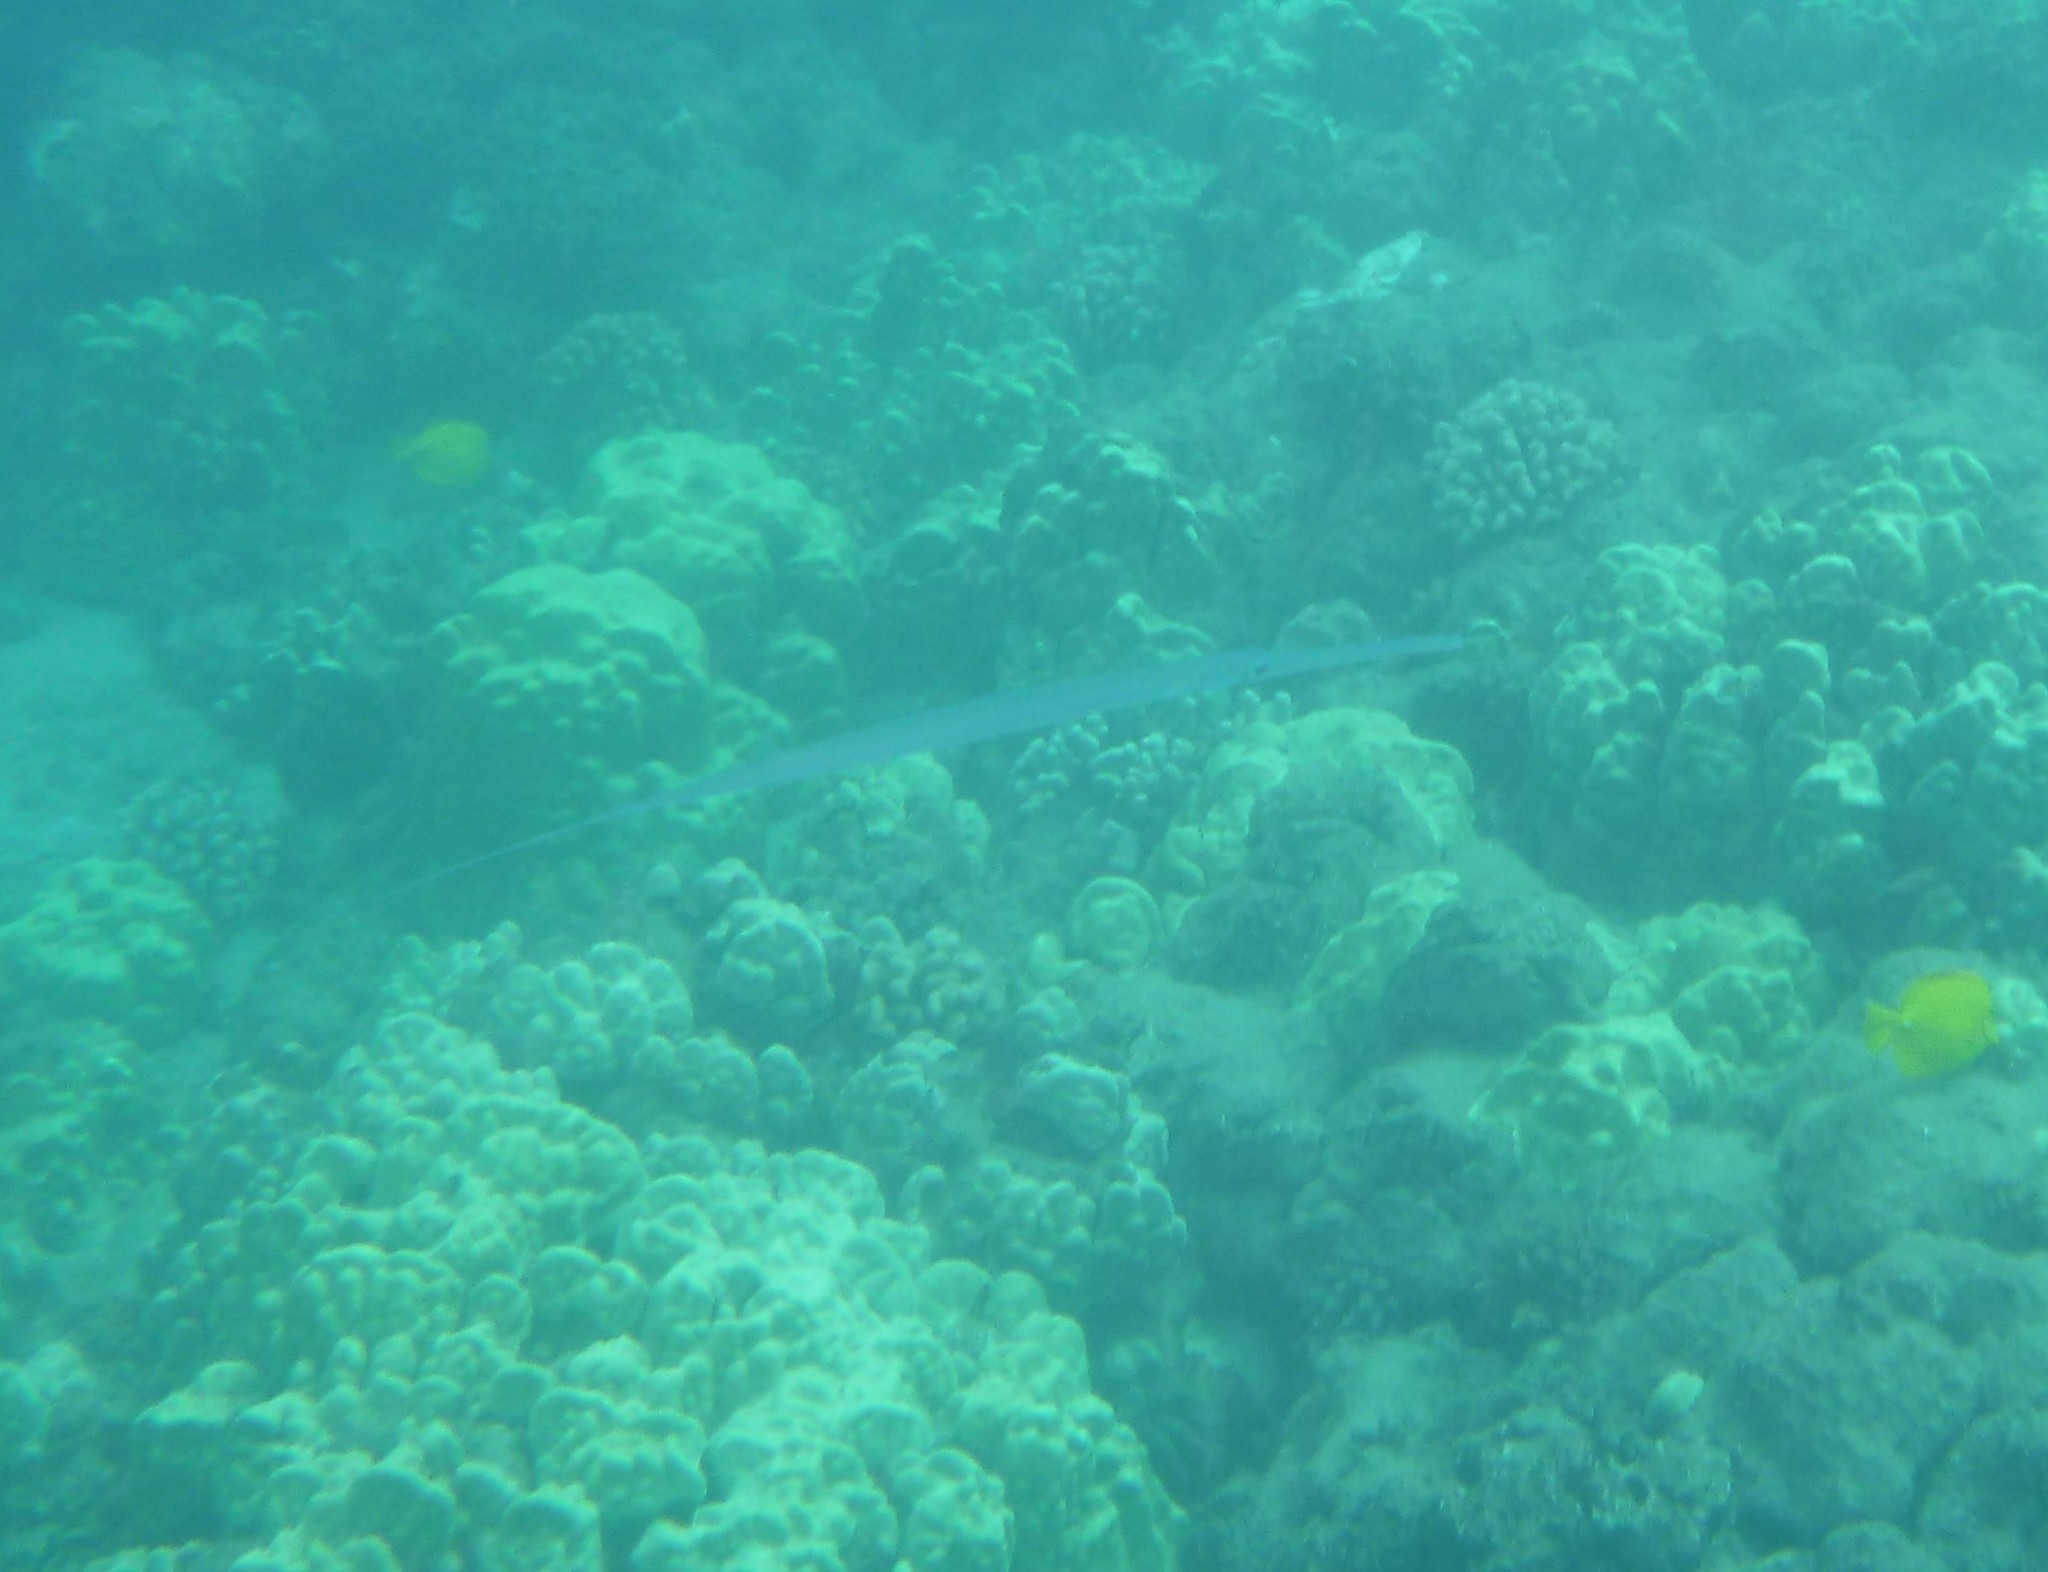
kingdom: Animalia
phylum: Chordata
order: Syngnathiformes
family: Fistulariidae
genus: Fistularia
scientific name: Fistularia commersonii
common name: Bluespotted cornetfish
